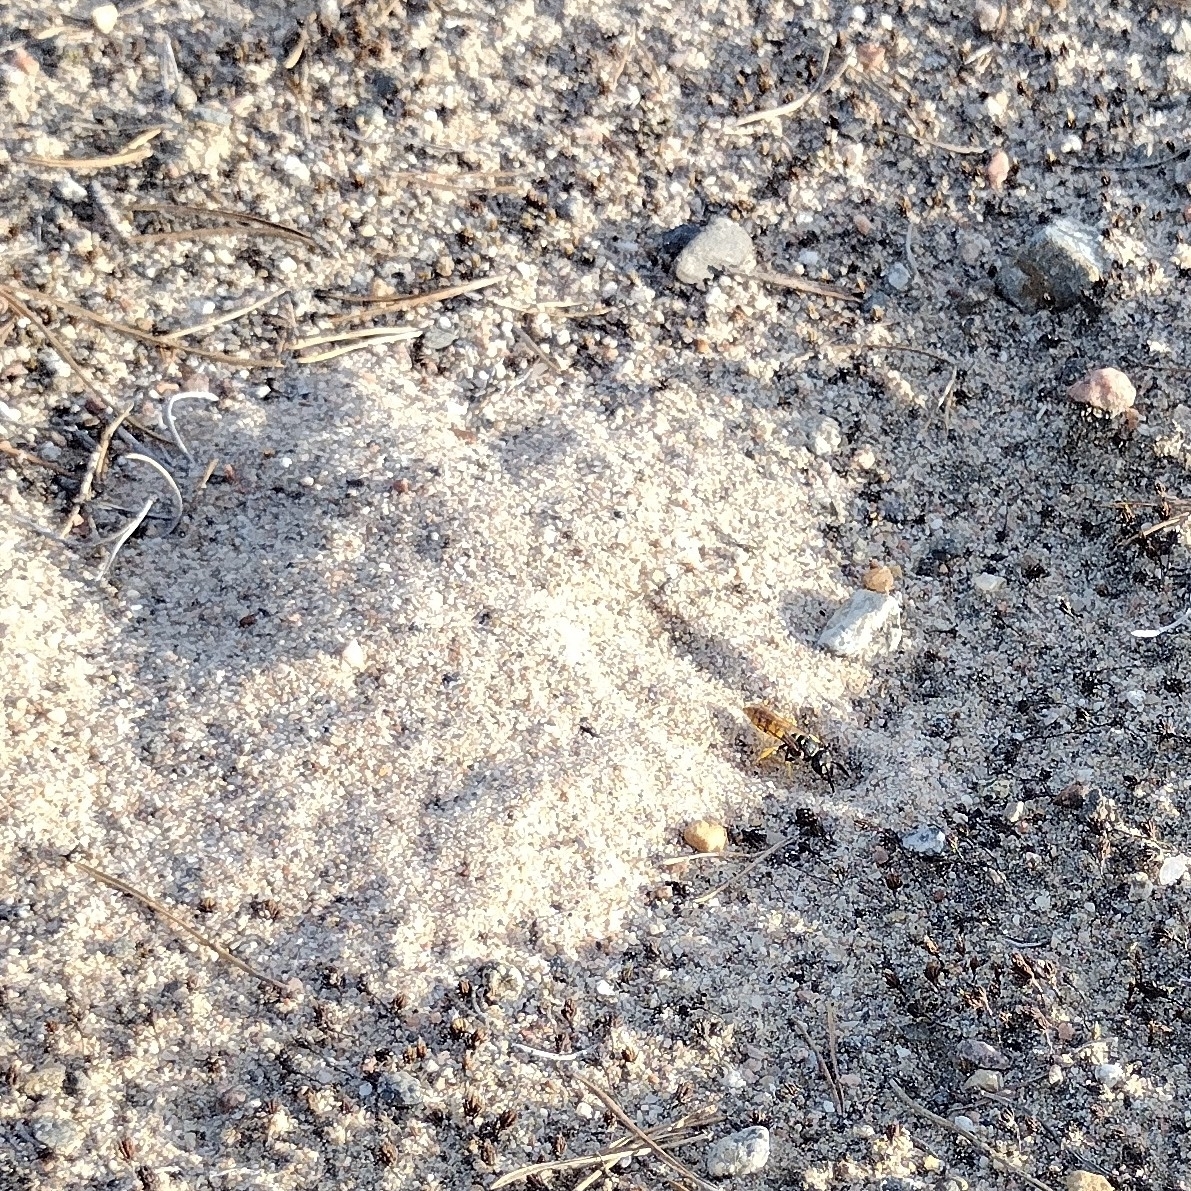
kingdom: Animalia
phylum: Arthropoda
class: Insecta
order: Hymenoptera
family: Crabronidae
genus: Philanthus
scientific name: Philanthus triangulum
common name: Bee wolf
